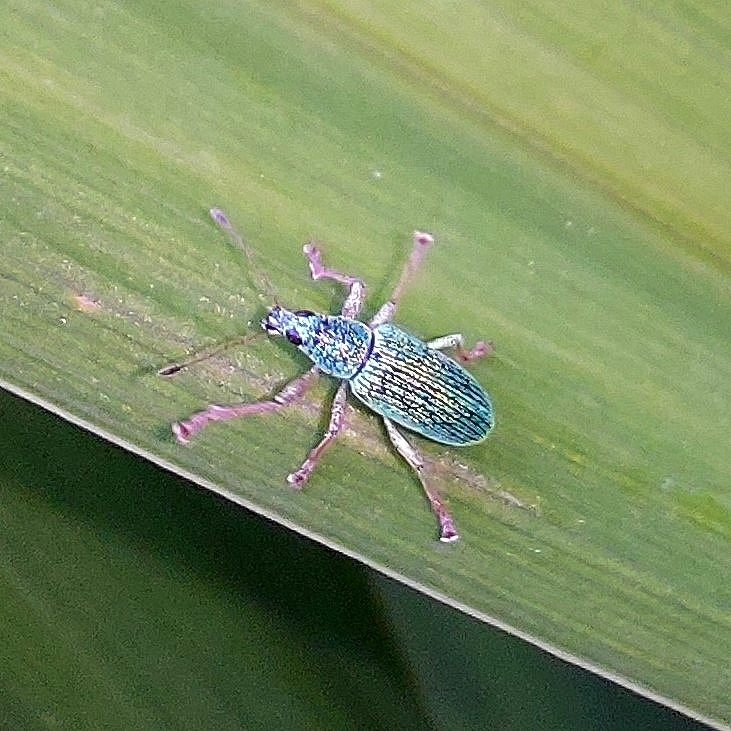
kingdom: Animalia
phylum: Arthropoda
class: Insecta
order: Coleoptera
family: Curculionidae
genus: Polydrusus
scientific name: Polydrusus formosus
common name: Weevil
